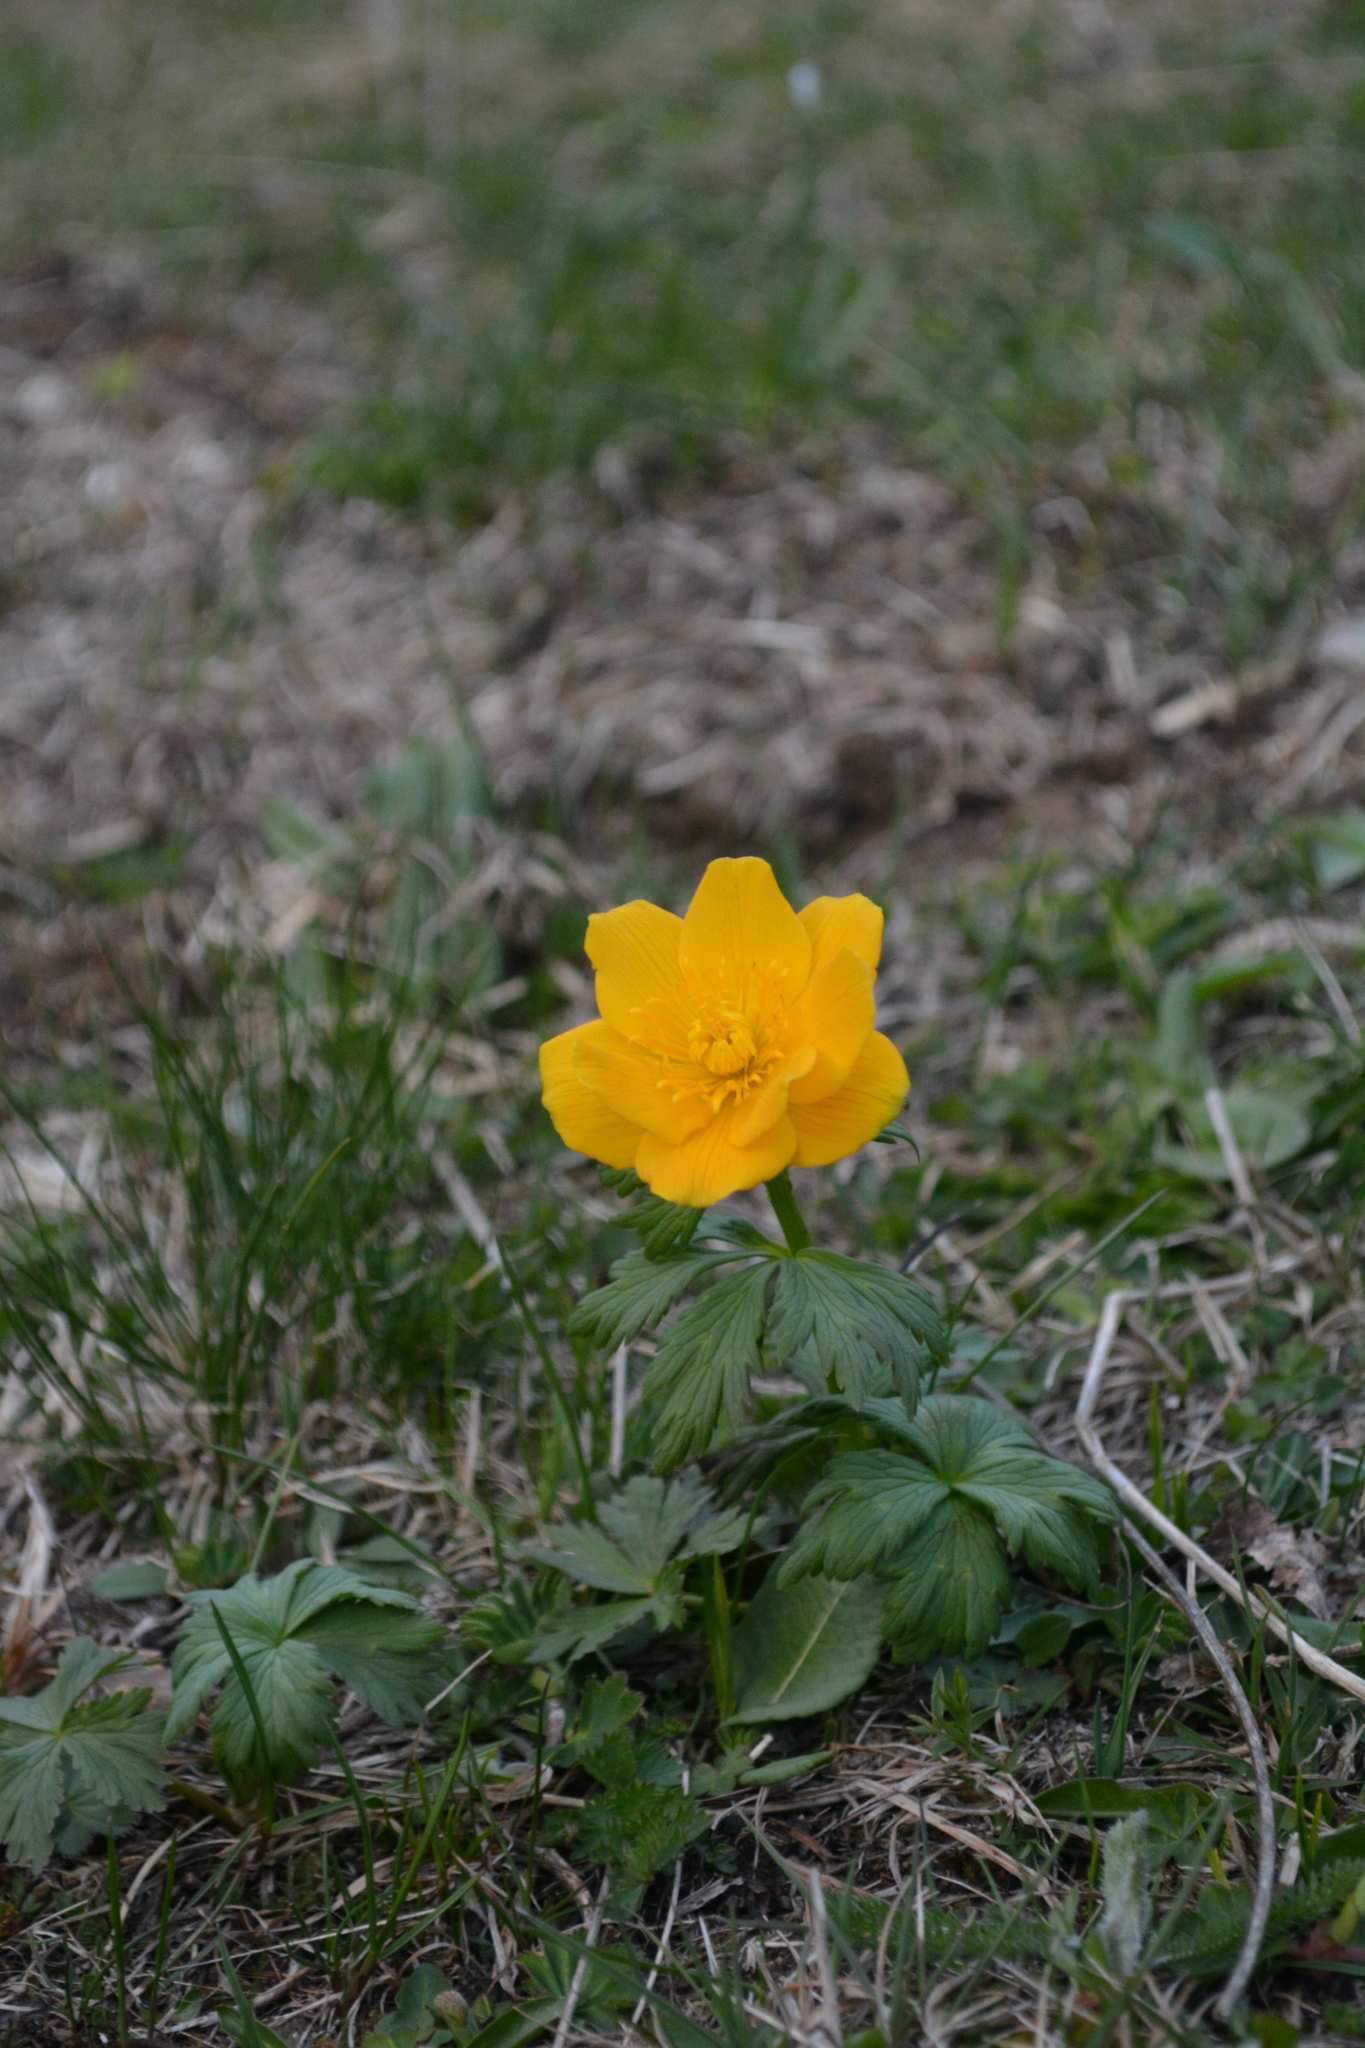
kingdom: Plantae
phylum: Tracheophyta
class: Magnoliopsida
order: Ranunculales
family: Ranunculaceae
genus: Trollius
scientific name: Trollius ranunculinus
